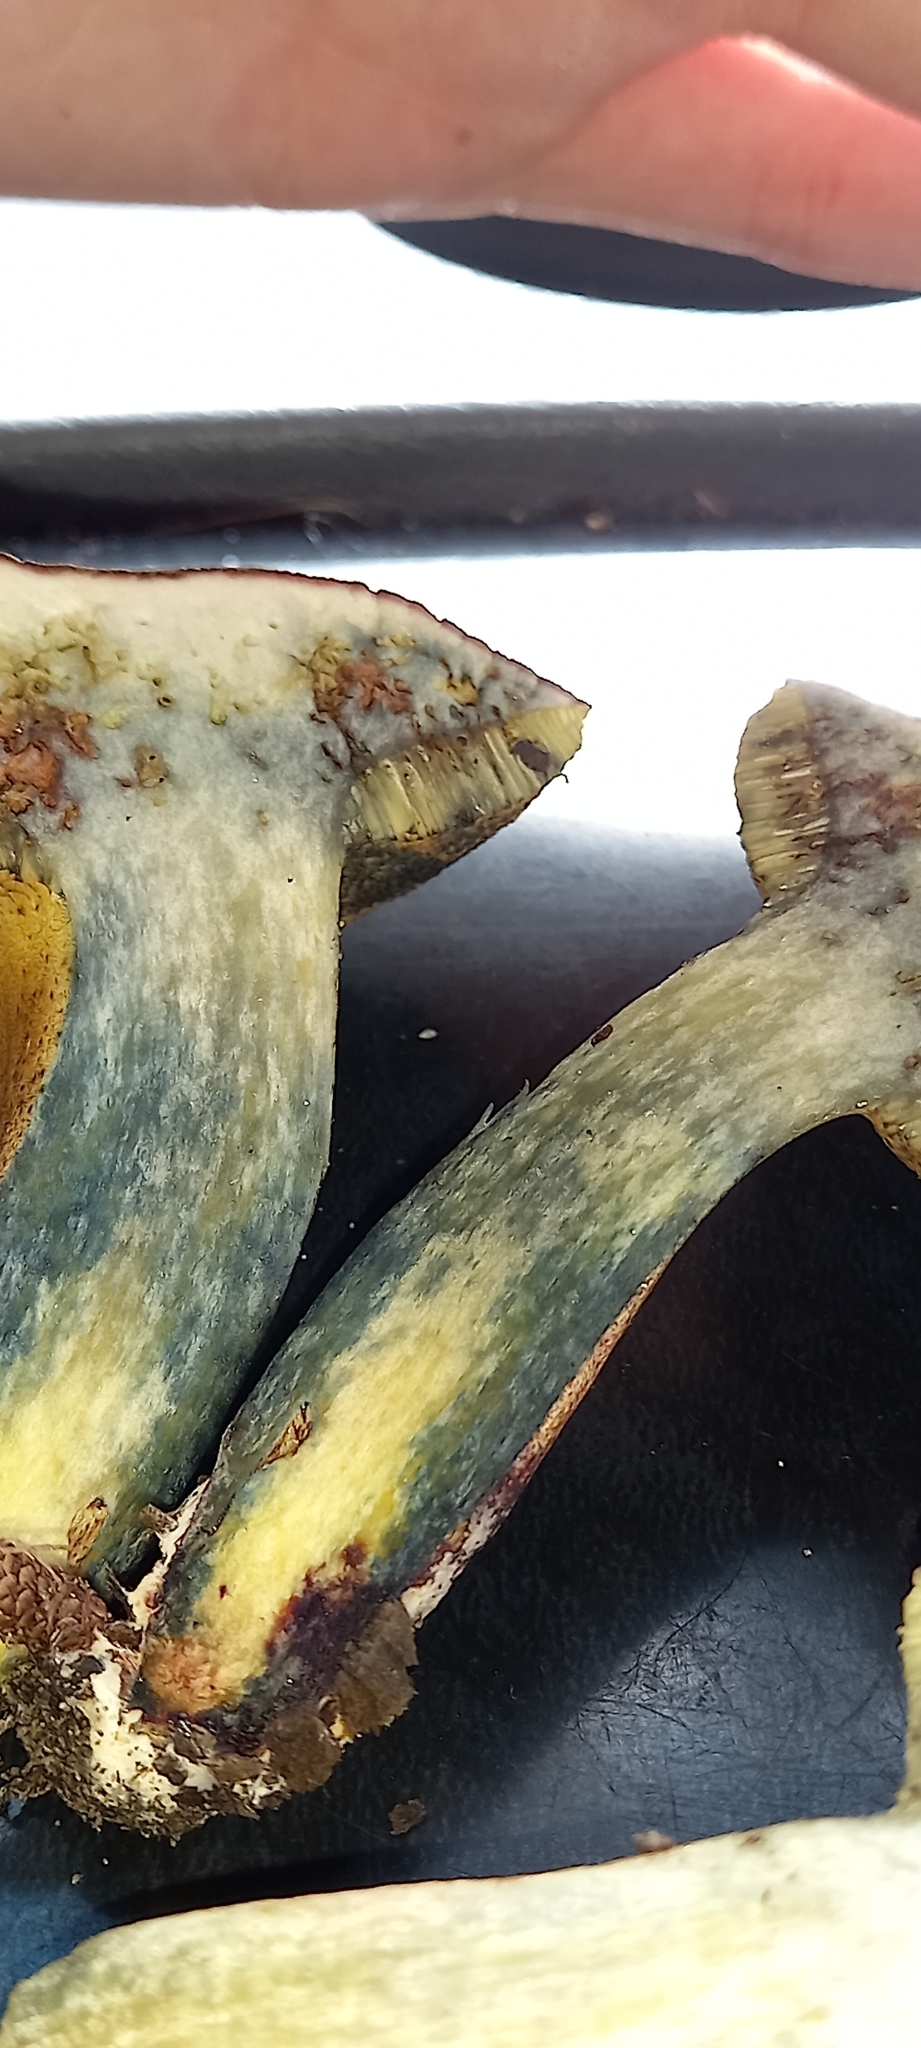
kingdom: Fungi
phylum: Basidiomycota
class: Agaricomycetes
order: Boletales
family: Boletaceae
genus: Xerocomellus
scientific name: Xerocomellus cisalpinus
